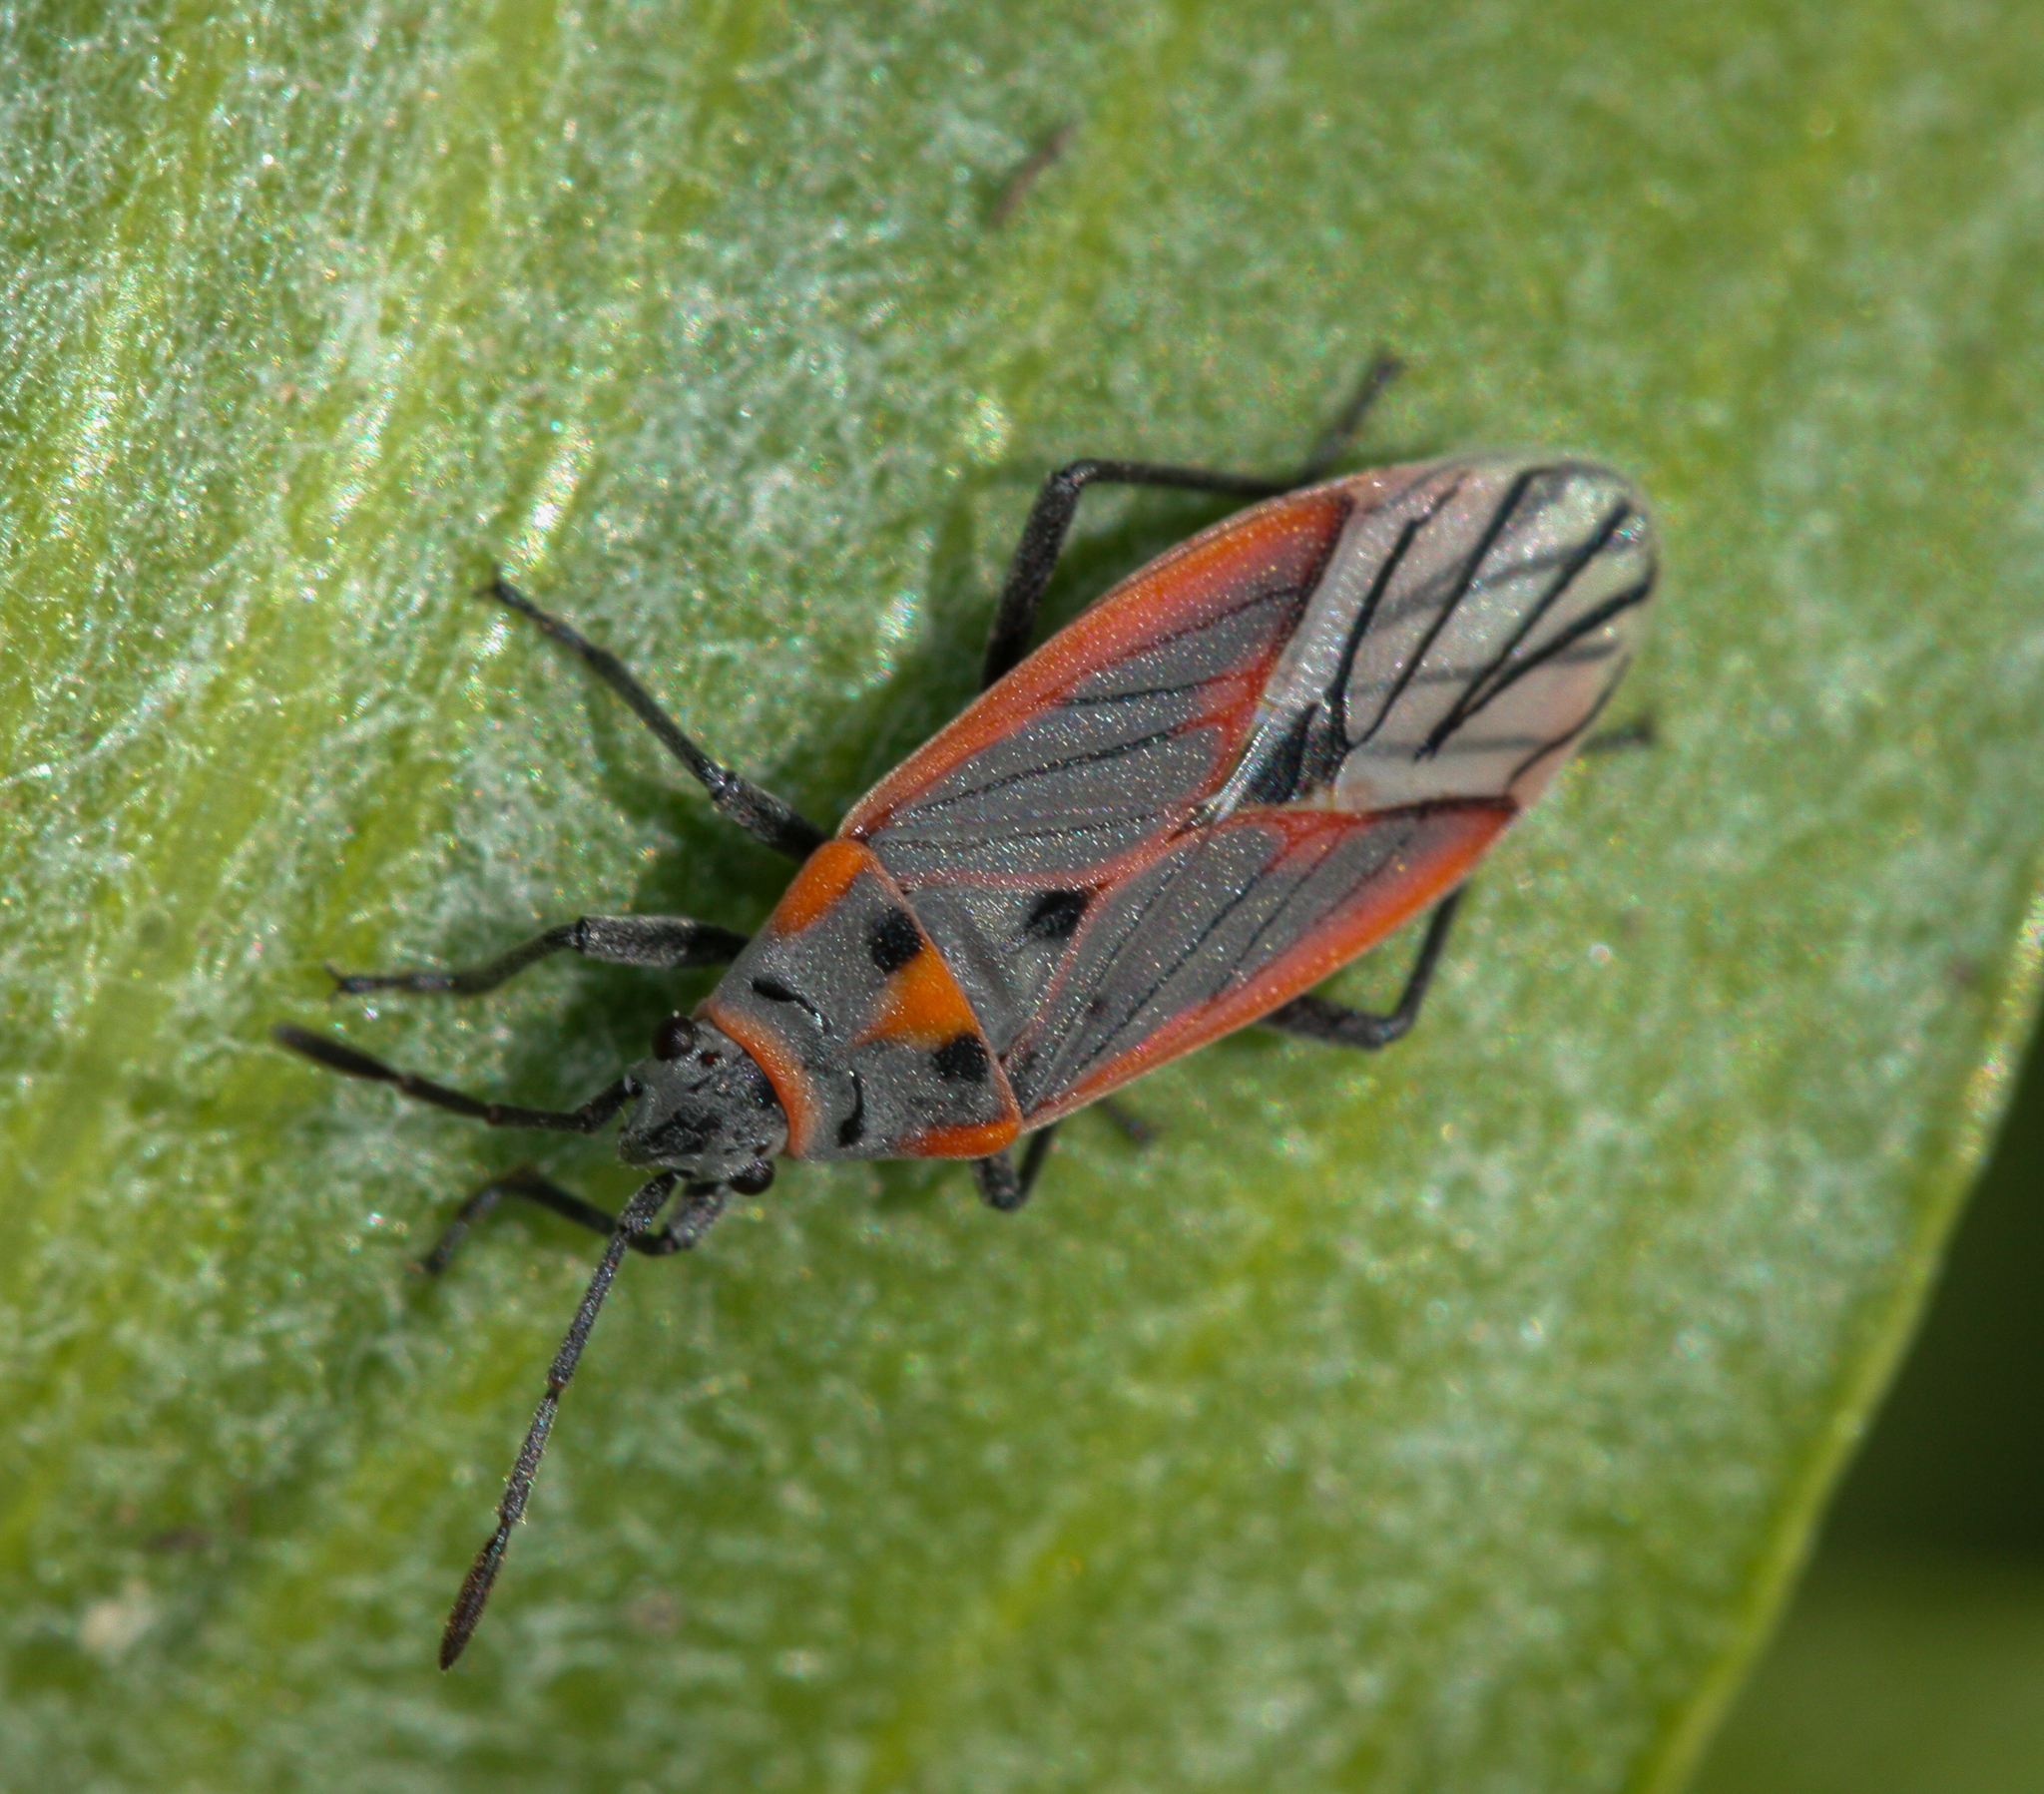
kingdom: Animalia
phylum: Arthropoda
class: Insecta
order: Hemiptera
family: Lygaeidae
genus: Melacoryphus
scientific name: Melacoryphus nigrinervis
